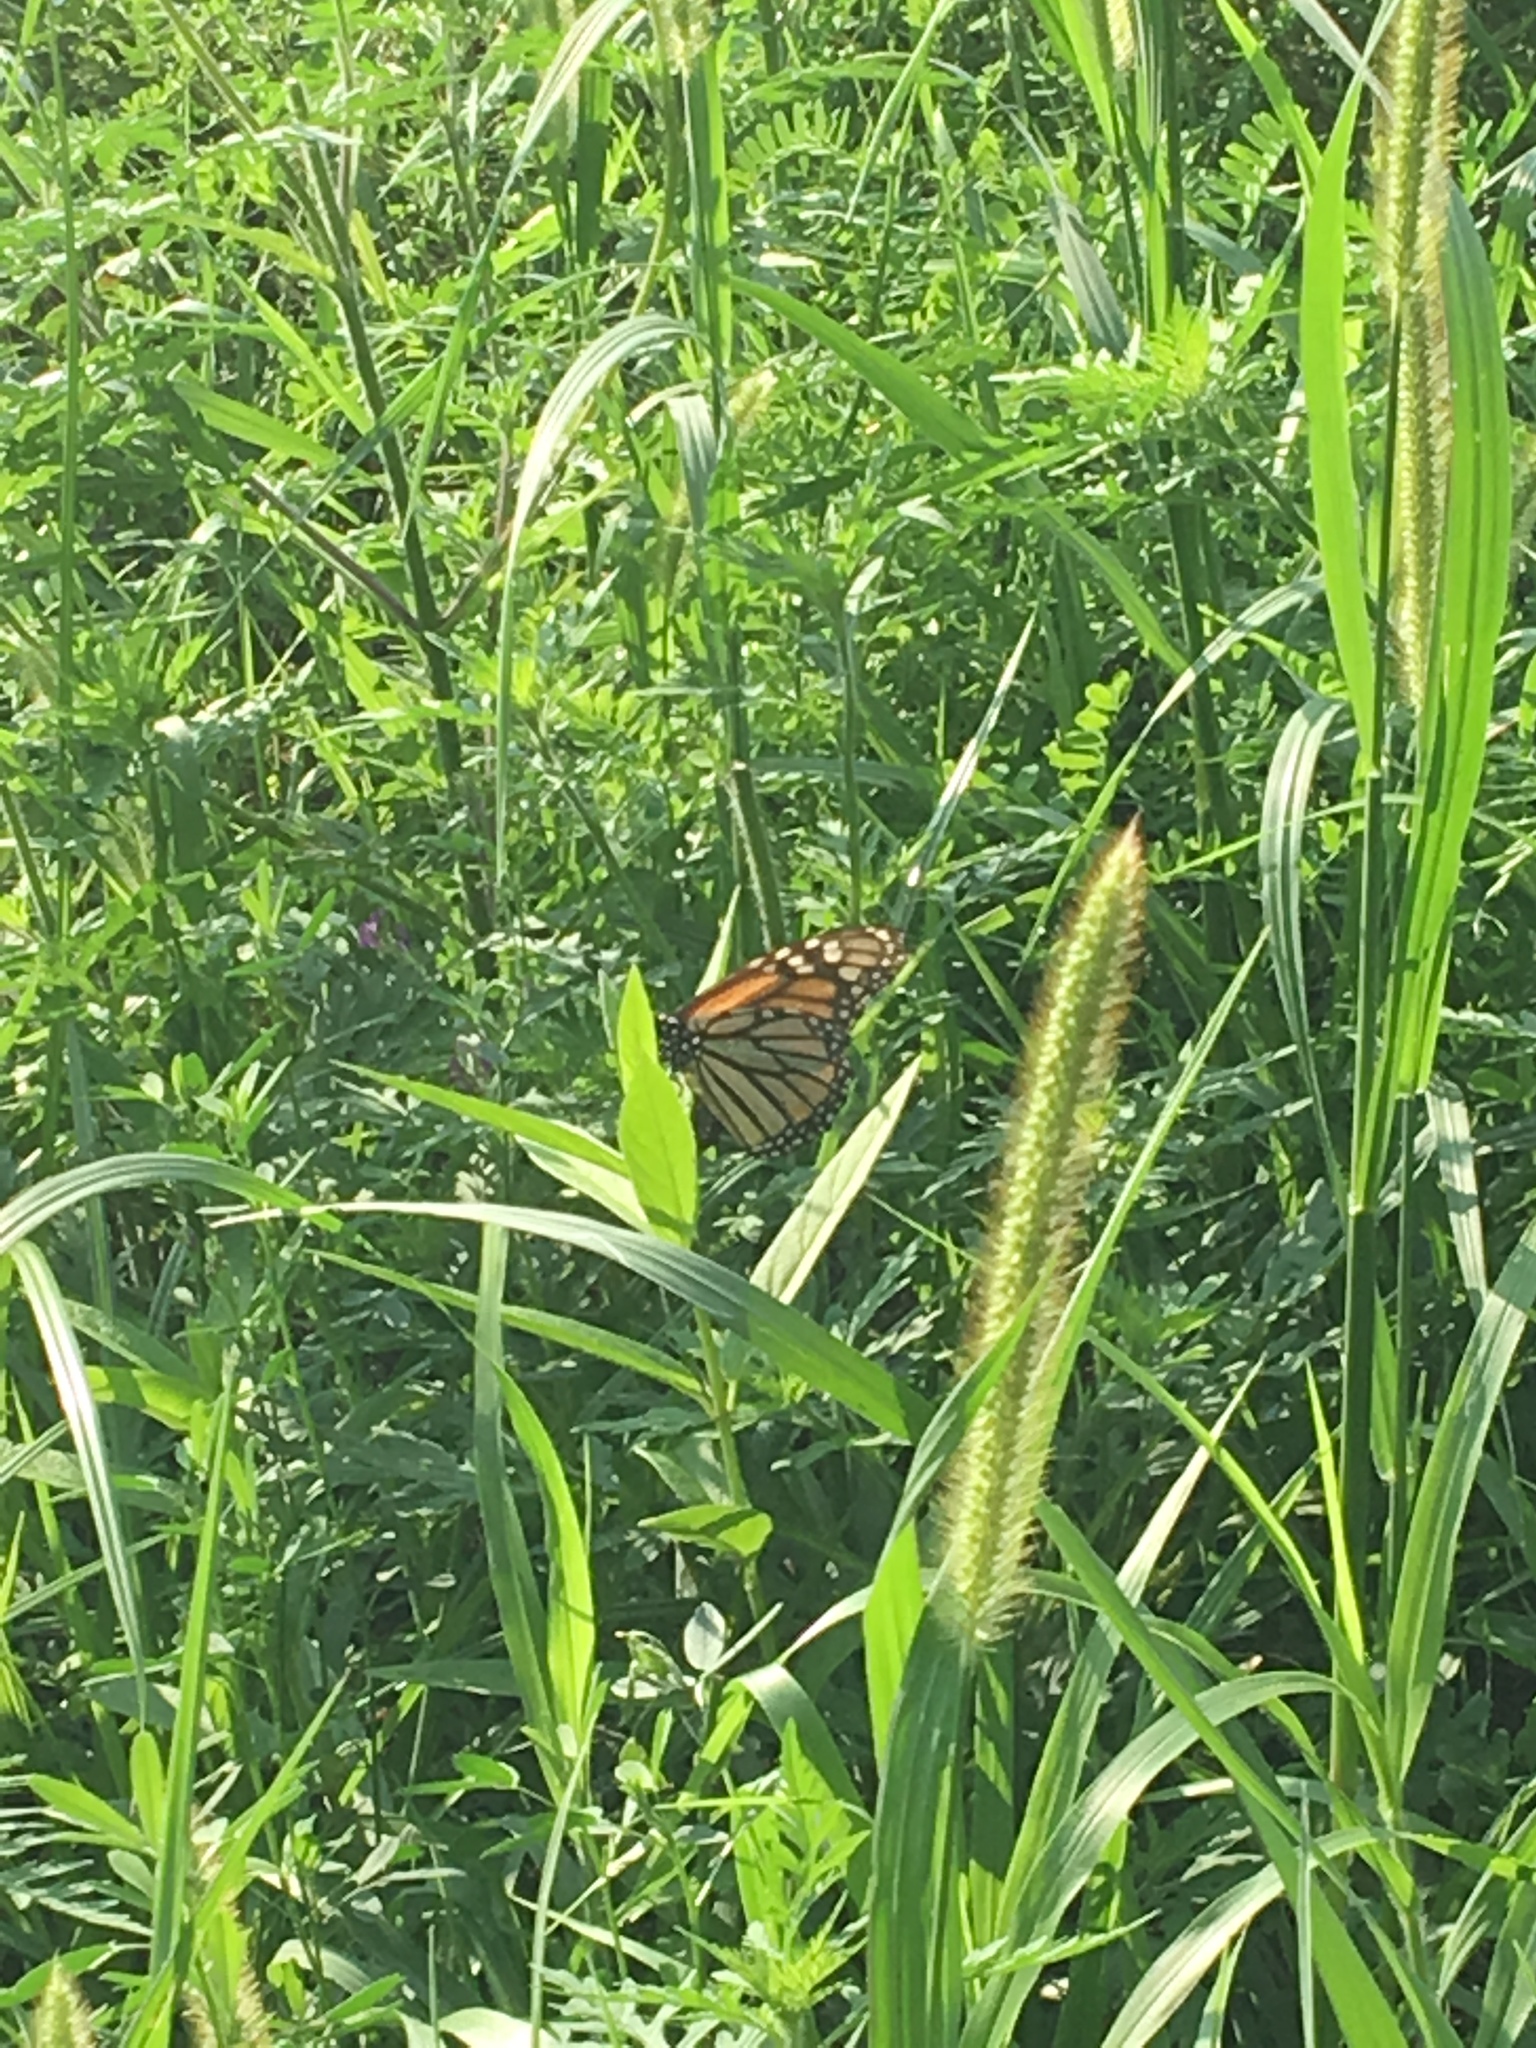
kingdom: Animalia
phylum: Arthropoda
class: Insecta
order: Lepidoptera
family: Nymphalidae
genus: Danaus
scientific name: Danaus plexippus
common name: Monarch
